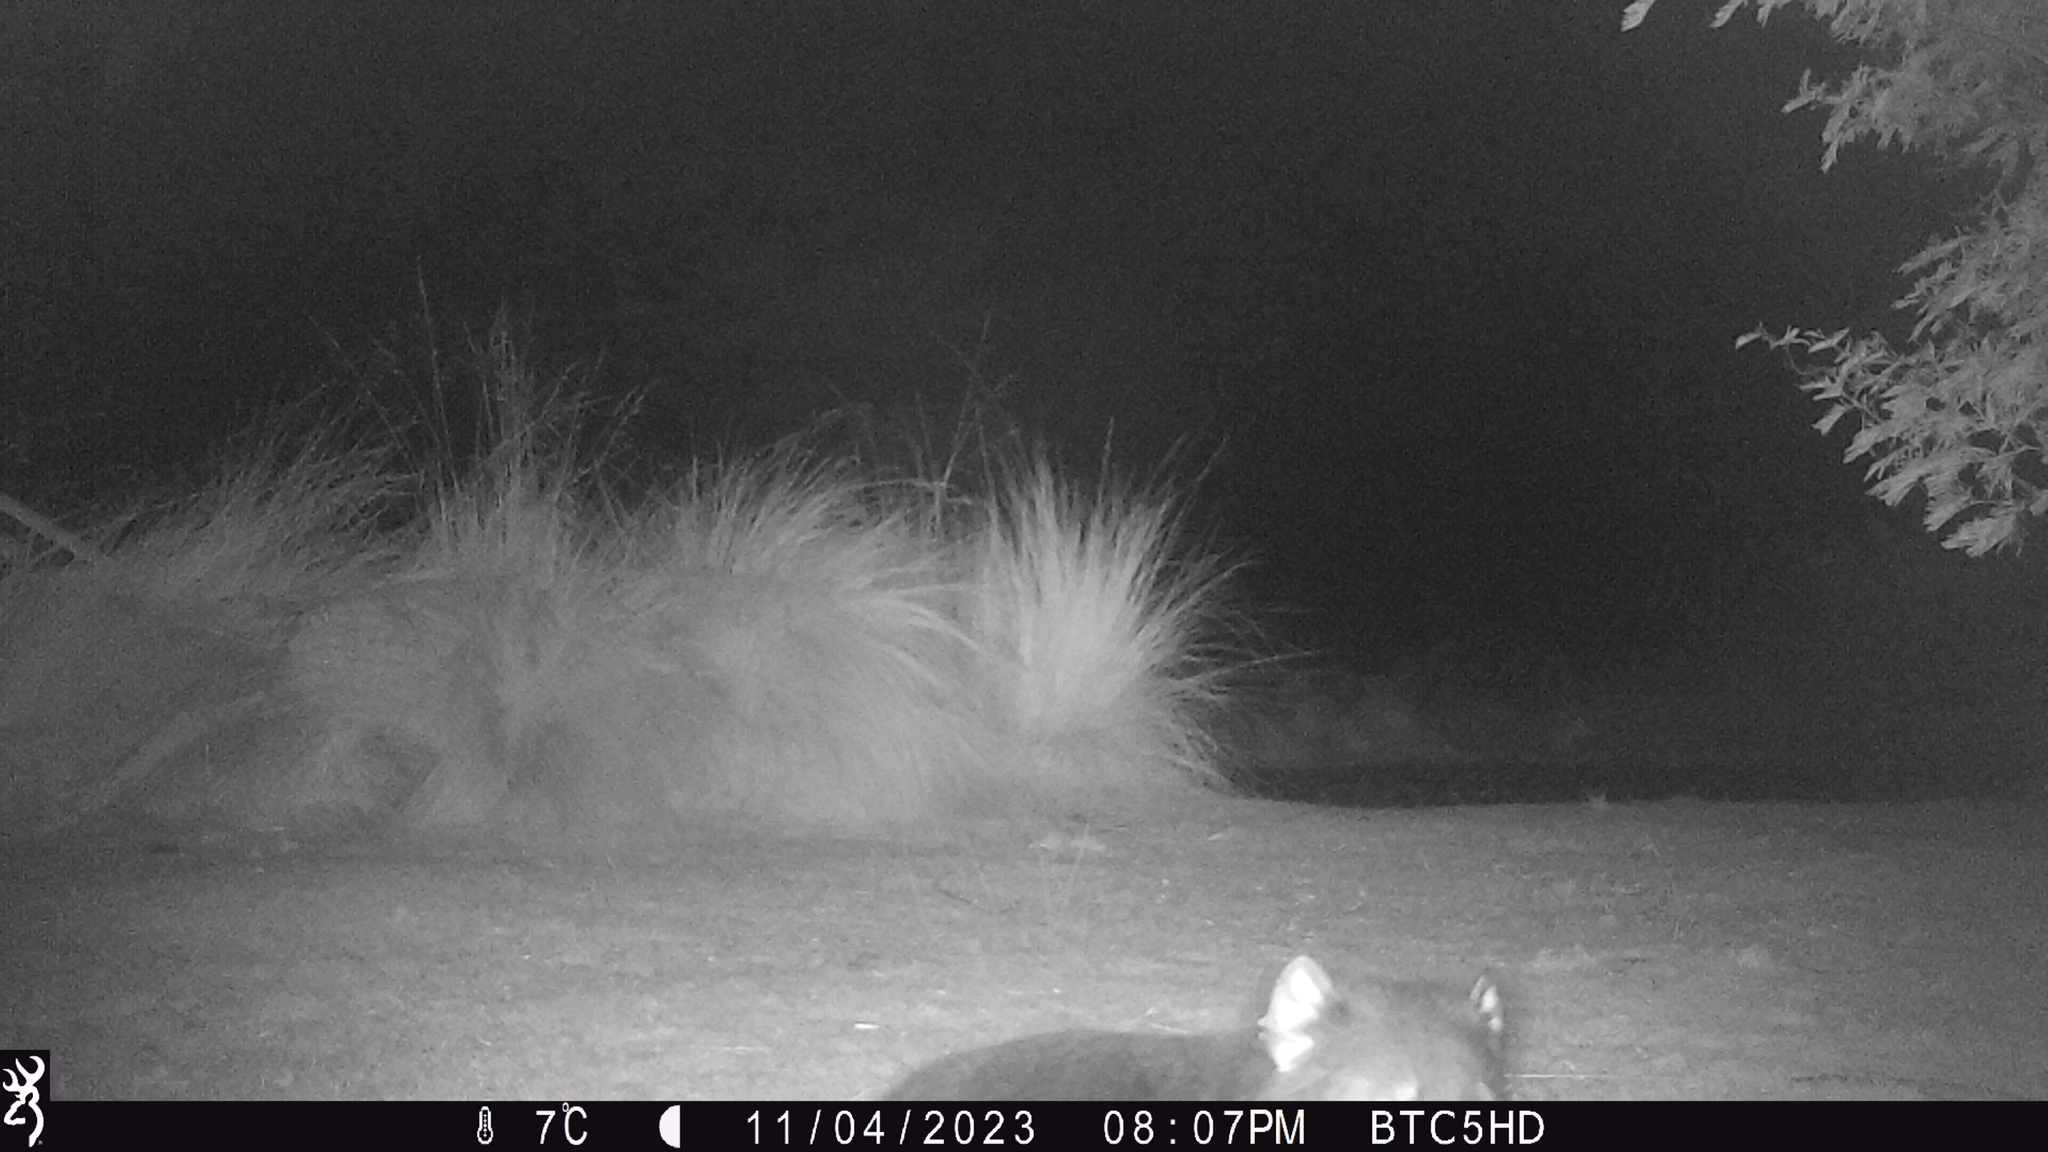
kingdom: Animalia
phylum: Chordata
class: Mammalia
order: Dasyuromorphia
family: Dasyuridae
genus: Sarcophilus
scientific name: Sarcophilus harrisii
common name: Tasmanian devil
